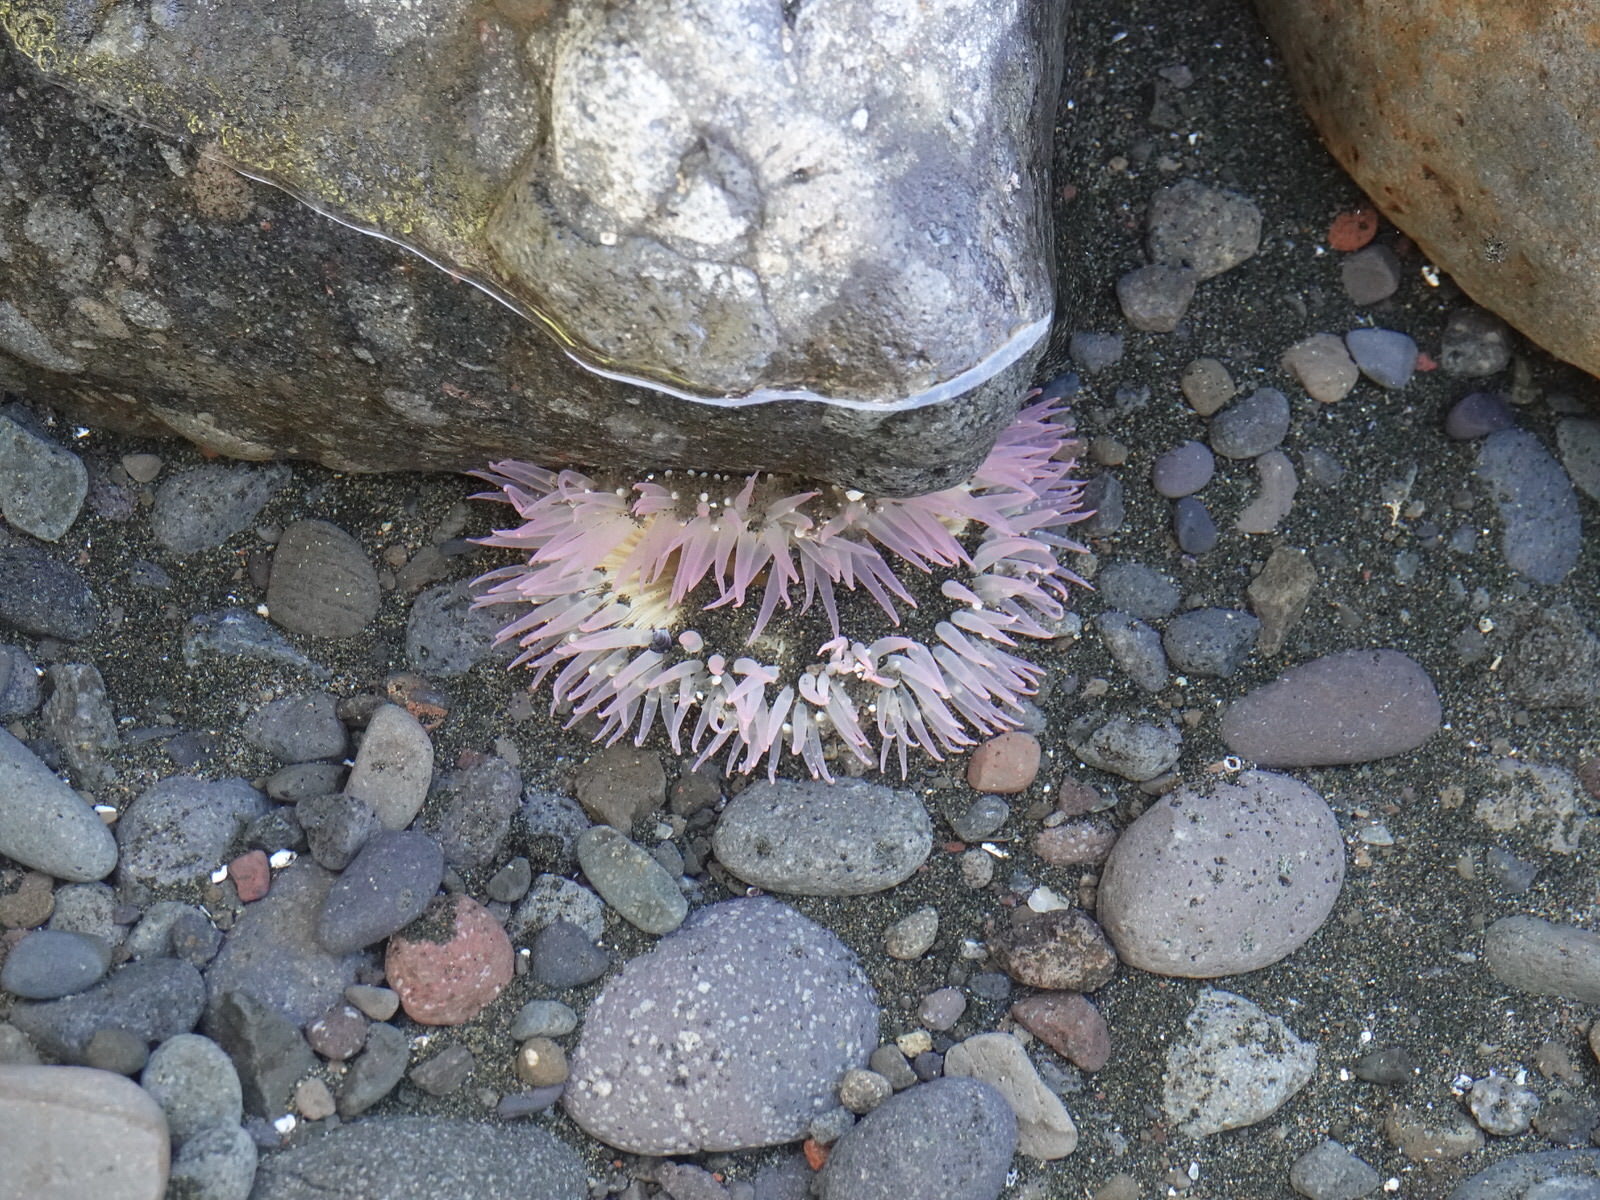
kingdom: Animalia
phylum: Cnidaria
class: Anthozoa
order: Actiniaria
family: Actiniidae
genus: Oulactis
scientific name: Oulactis magna
